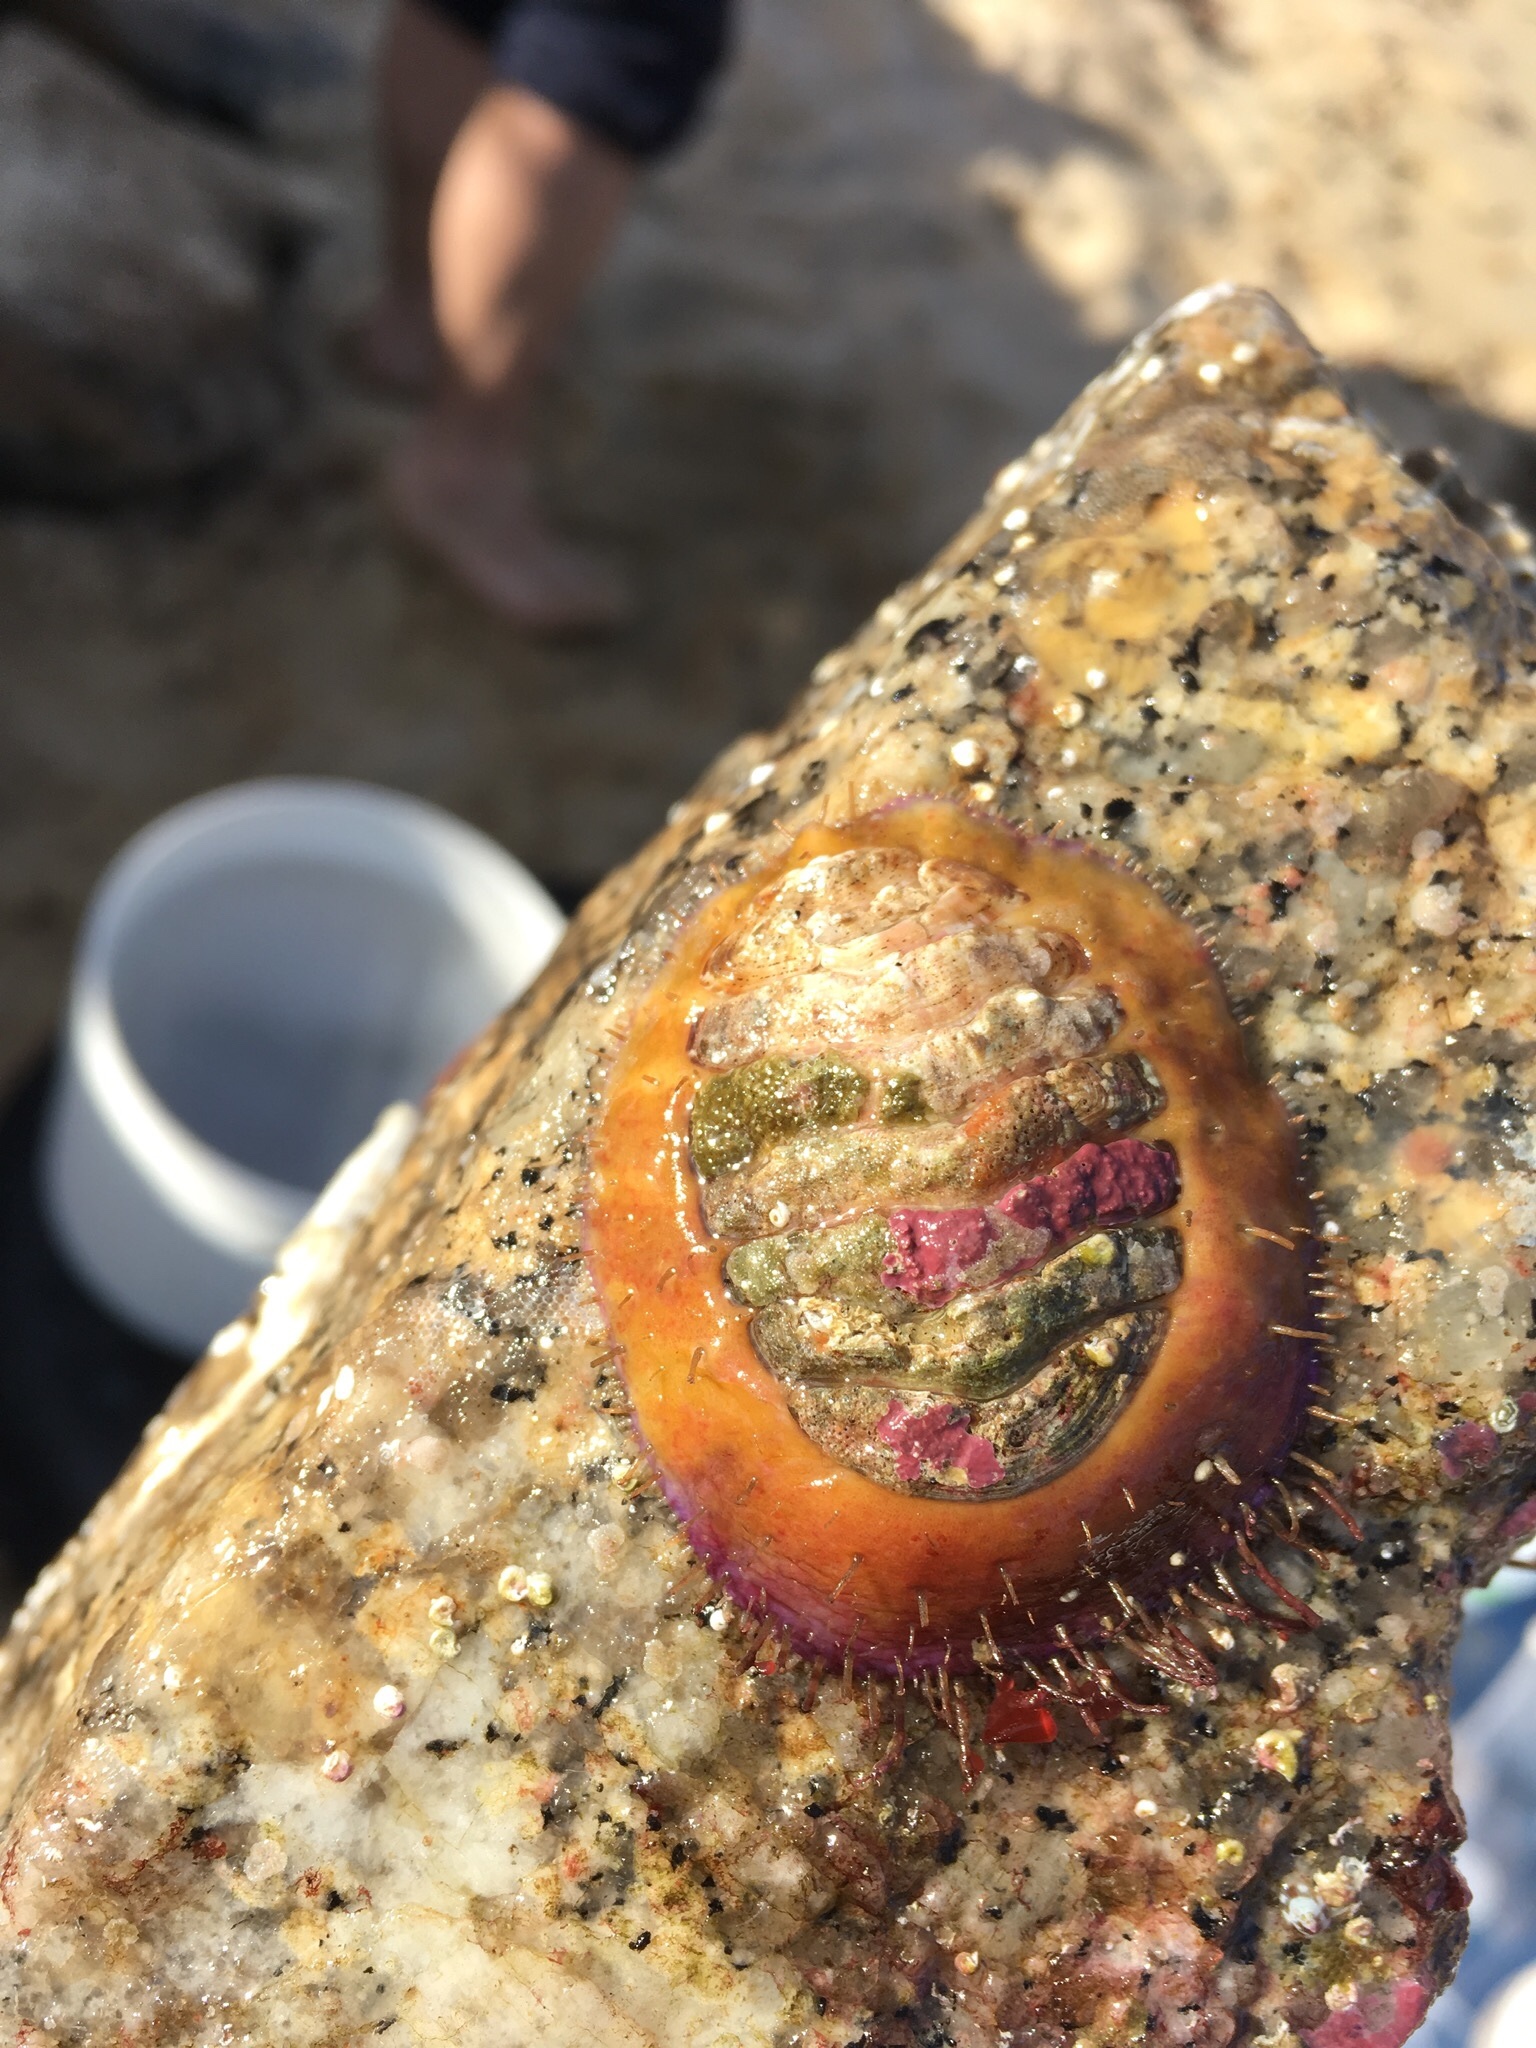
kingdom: Animalia
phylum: Mollusca
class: Polyplacophora
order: Chitonida
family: Mopaliidae
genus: Placiphorella
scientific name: Placiphorella velata
